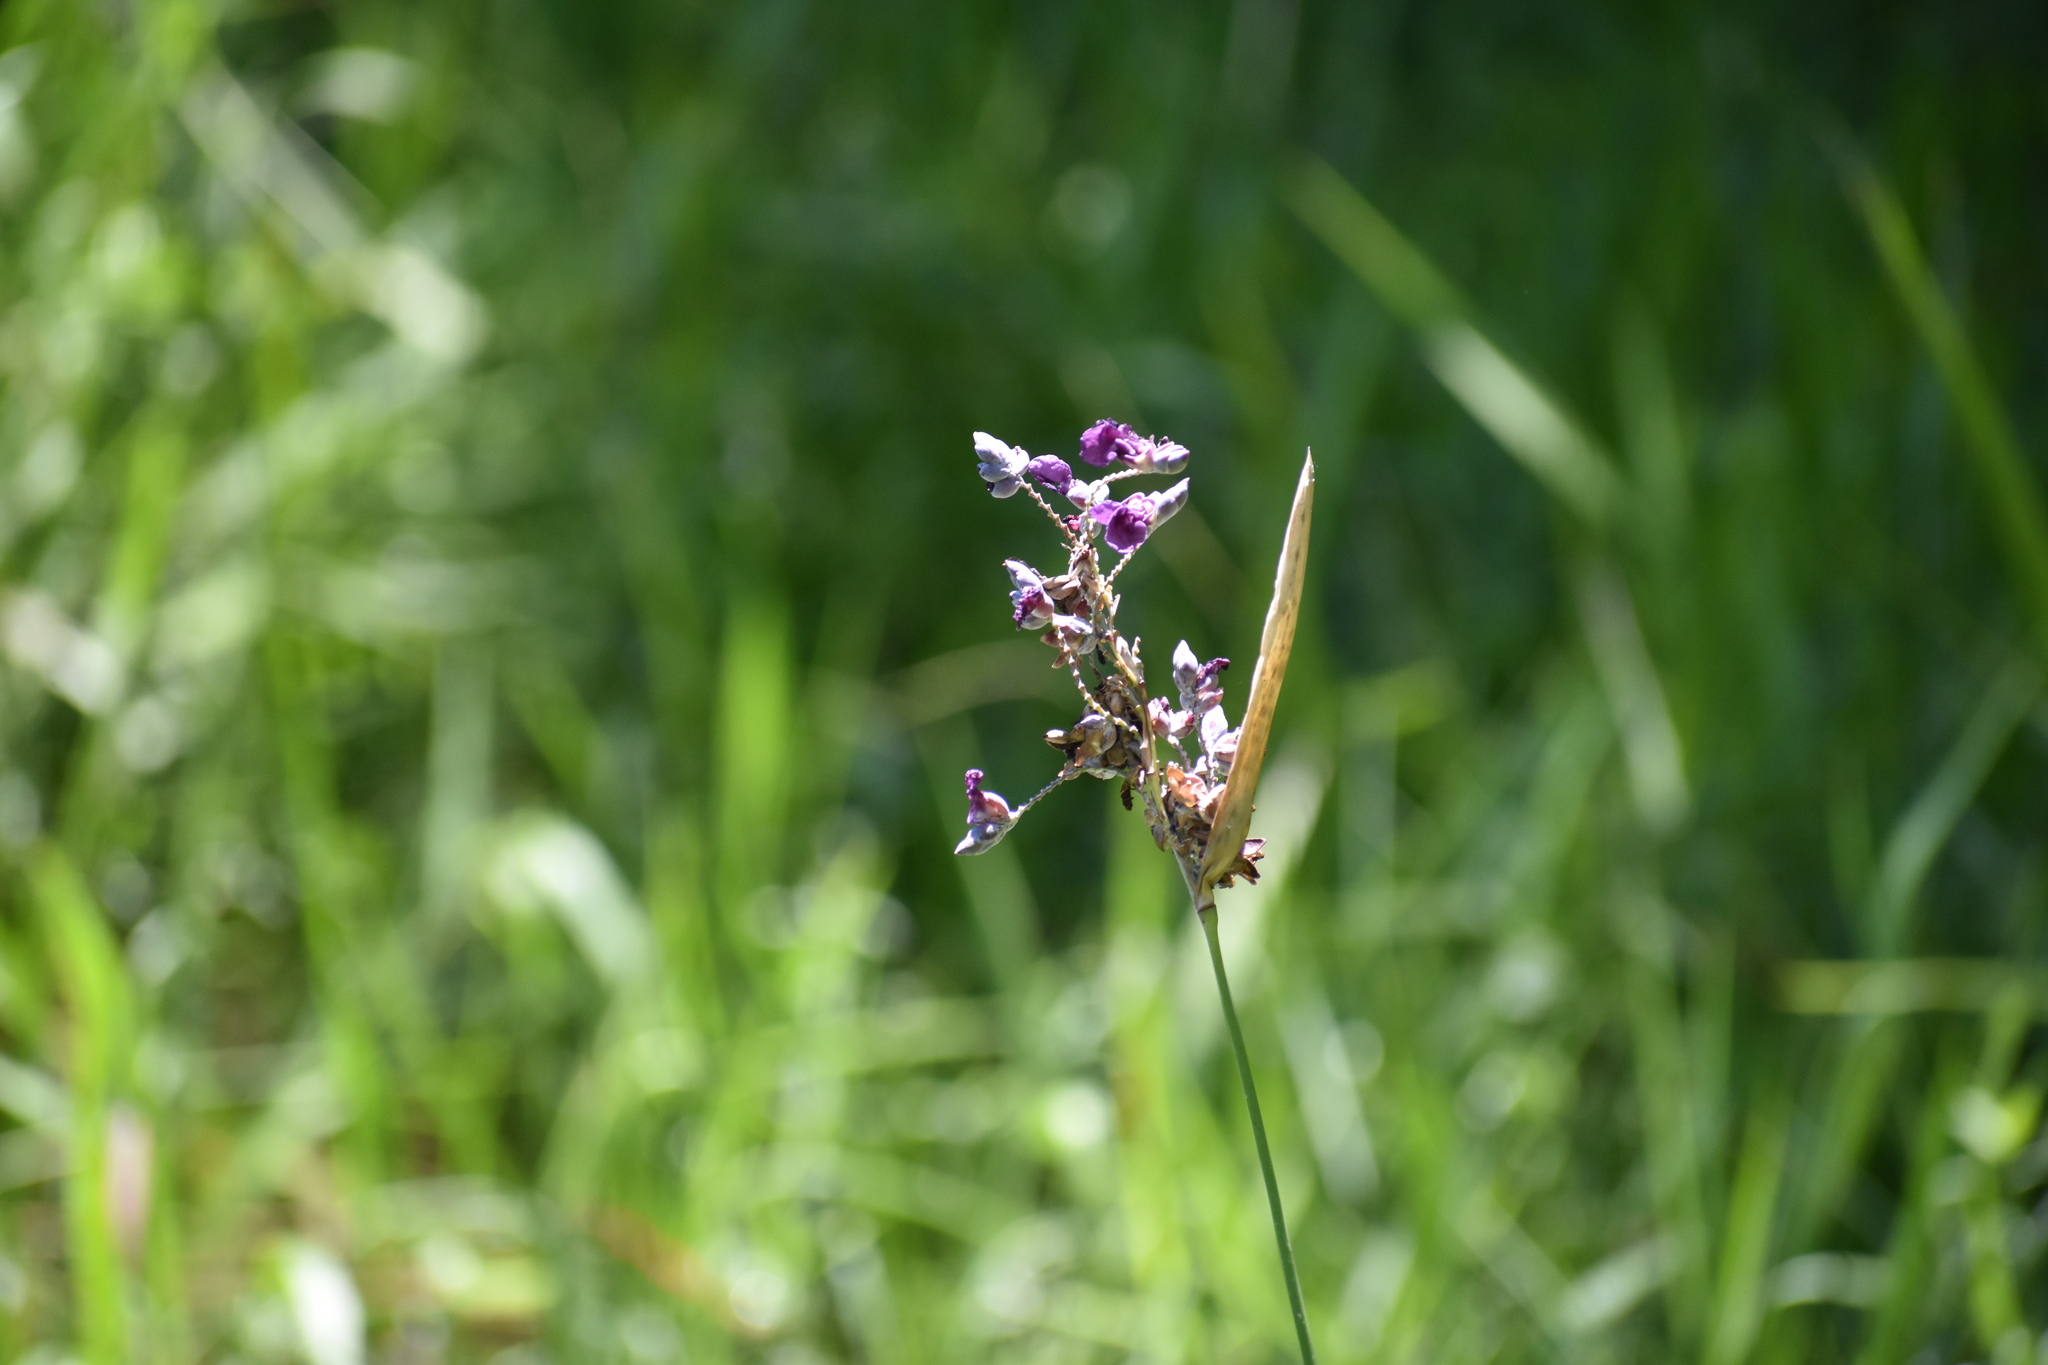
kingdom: Plantae
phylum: Tracheophyta
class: Liliopsida
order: Zingiberales
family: Marantaceae
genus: Thalia
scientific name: Thalia dealbata
